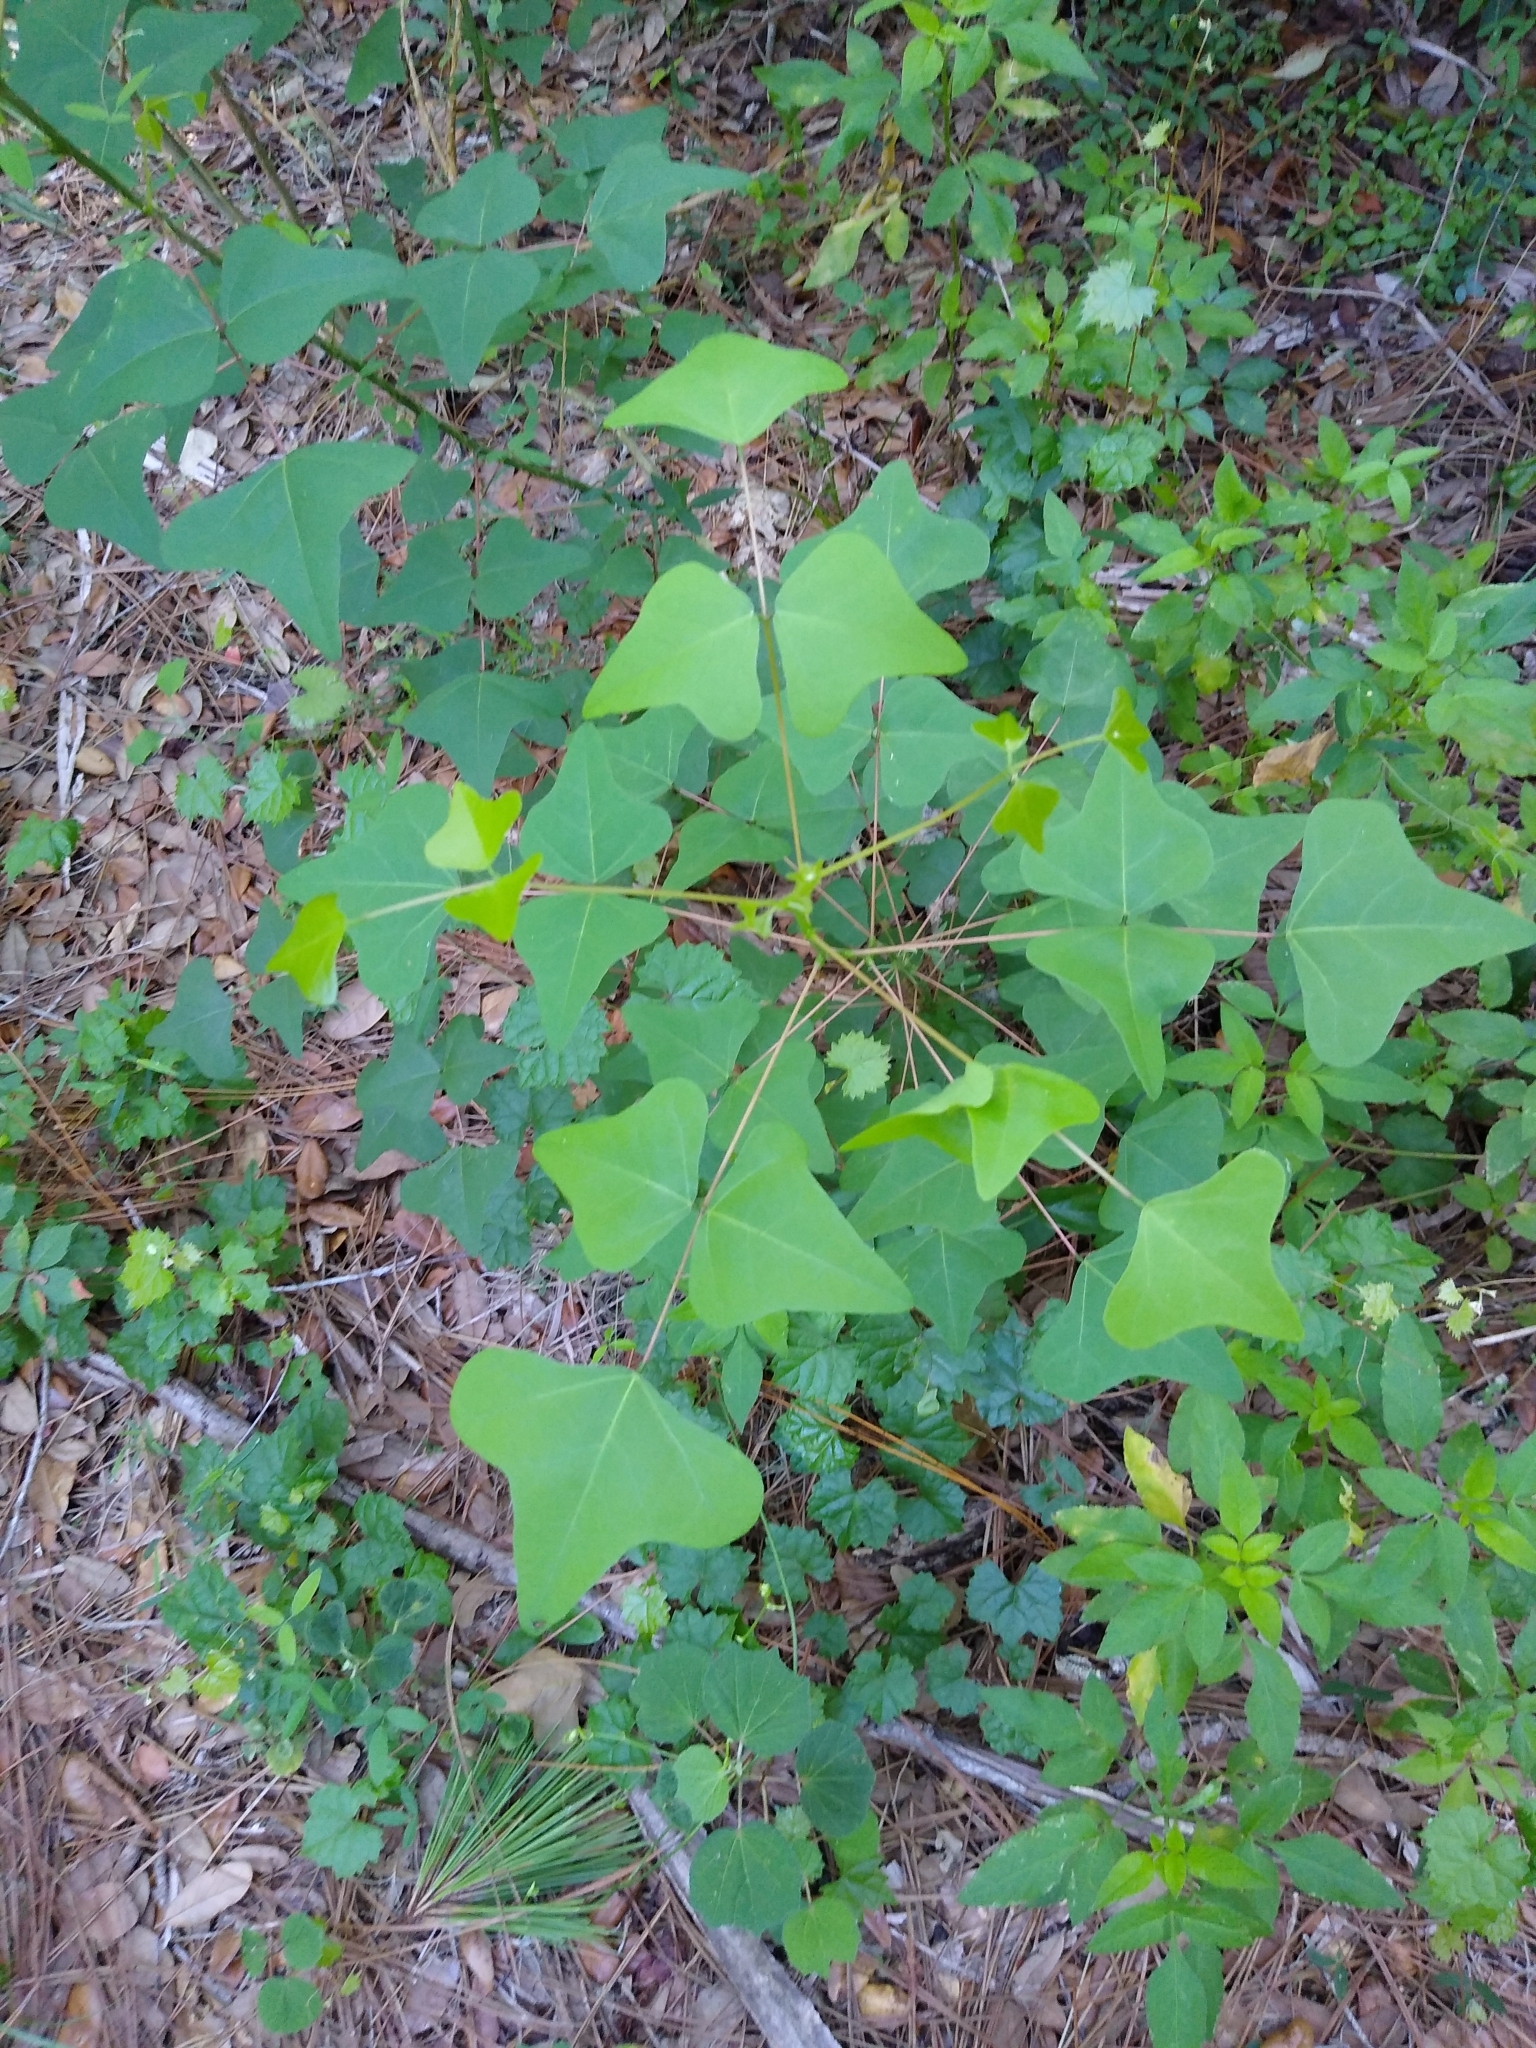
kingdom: Plantae
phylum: Tracheophyta
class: Magnoliopsida
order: Fabales
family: Fabaceae
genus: Erythrina
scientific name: Erythrina herbacea
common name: Coral-bean
